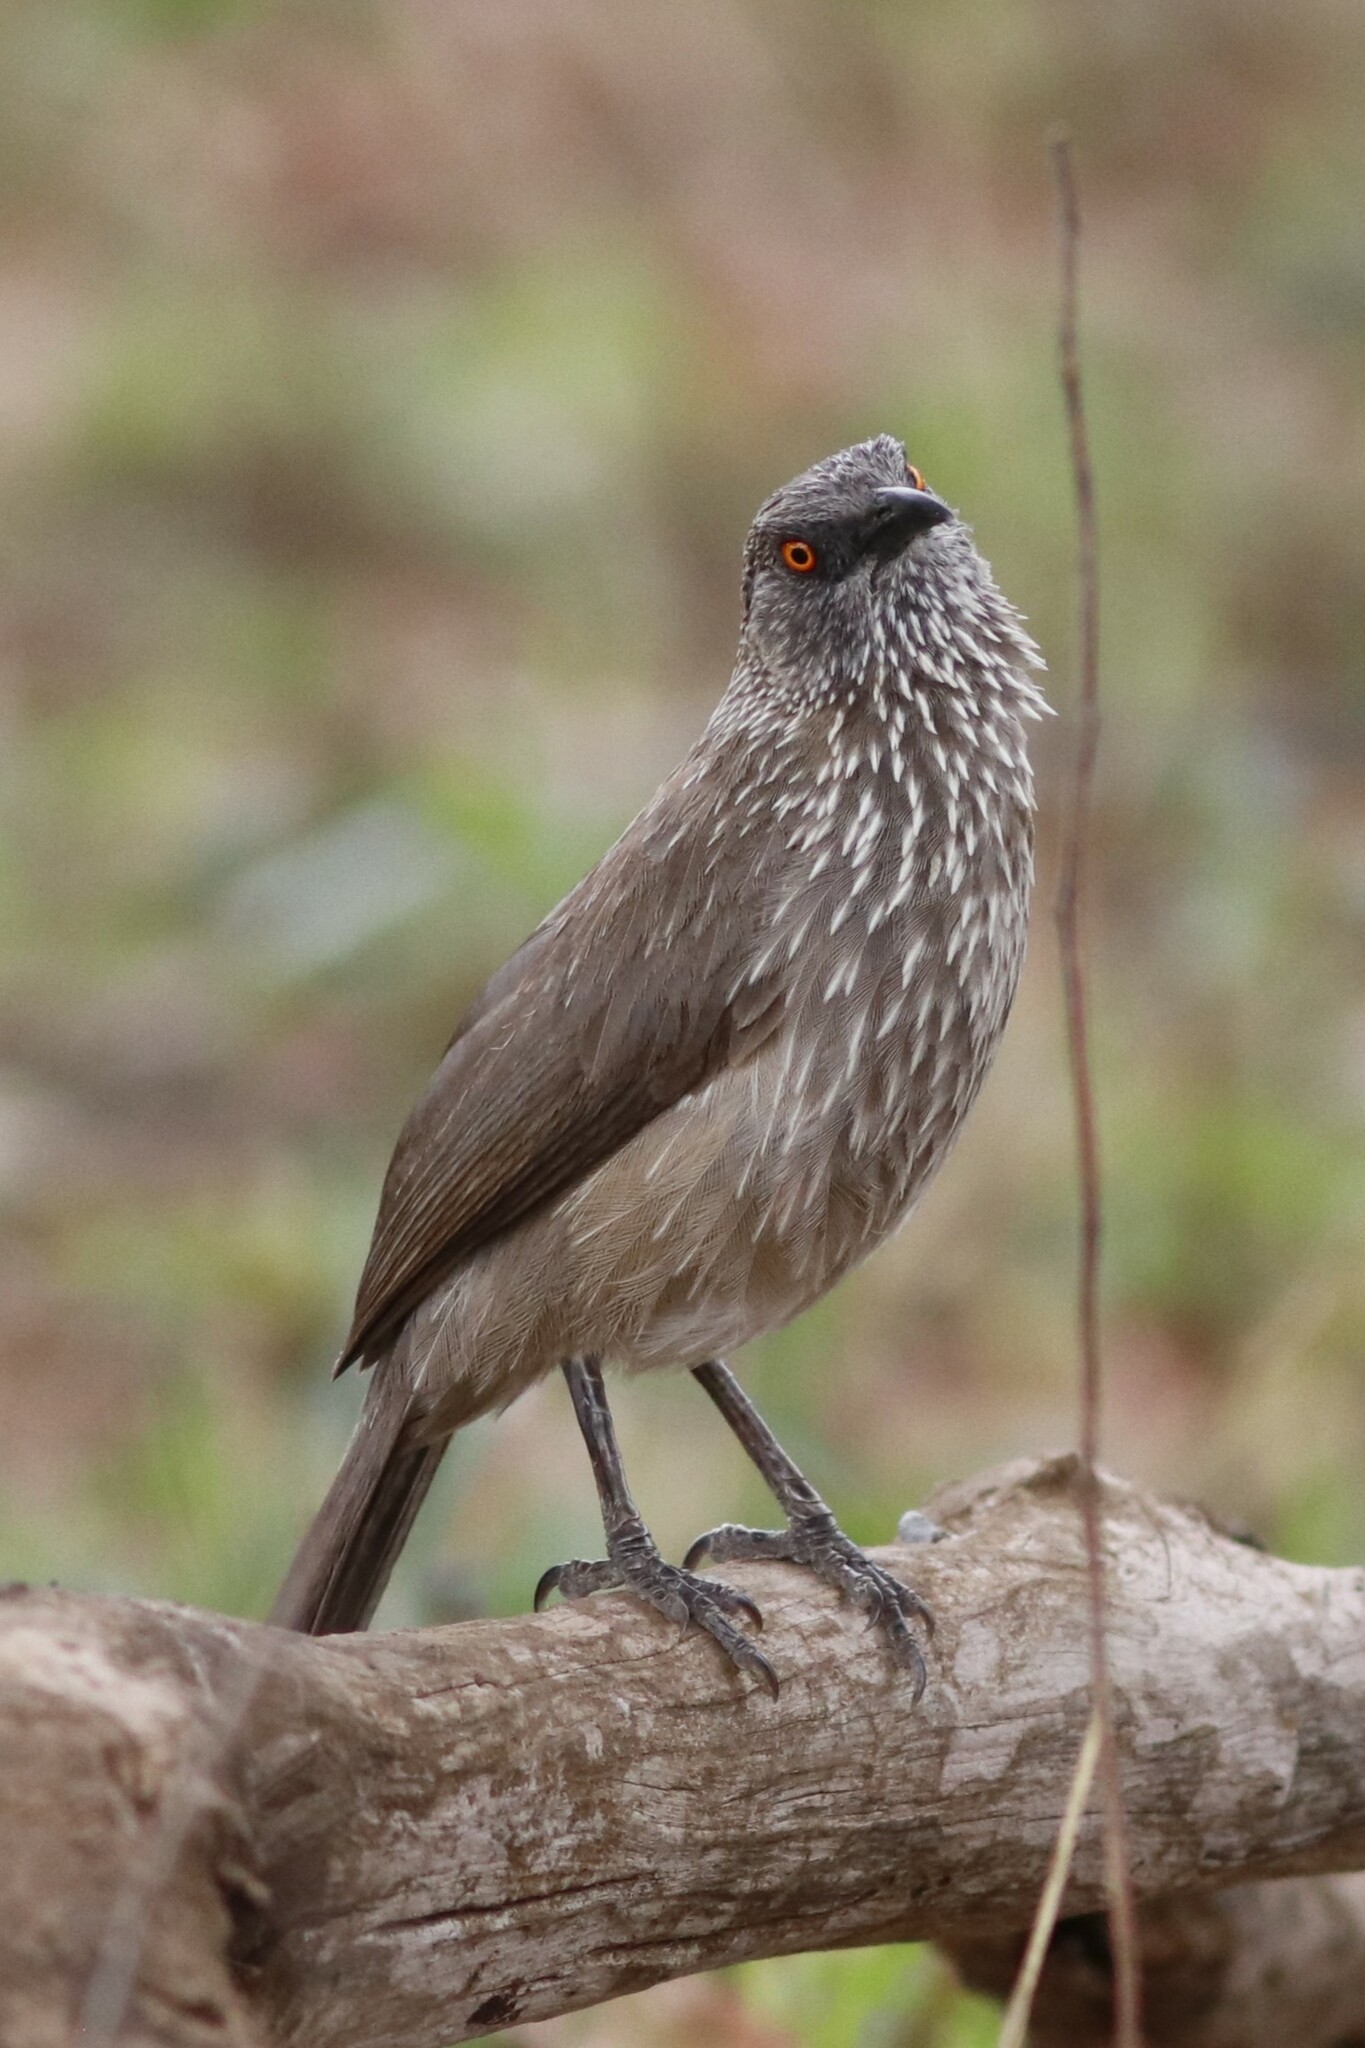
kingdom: Animalia
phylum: Chordata
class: Aves
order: Passeriformes
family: Leiothrichidae
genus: Turdoides
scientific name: Turdoides jardineii
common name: Arrow-marked babbler
